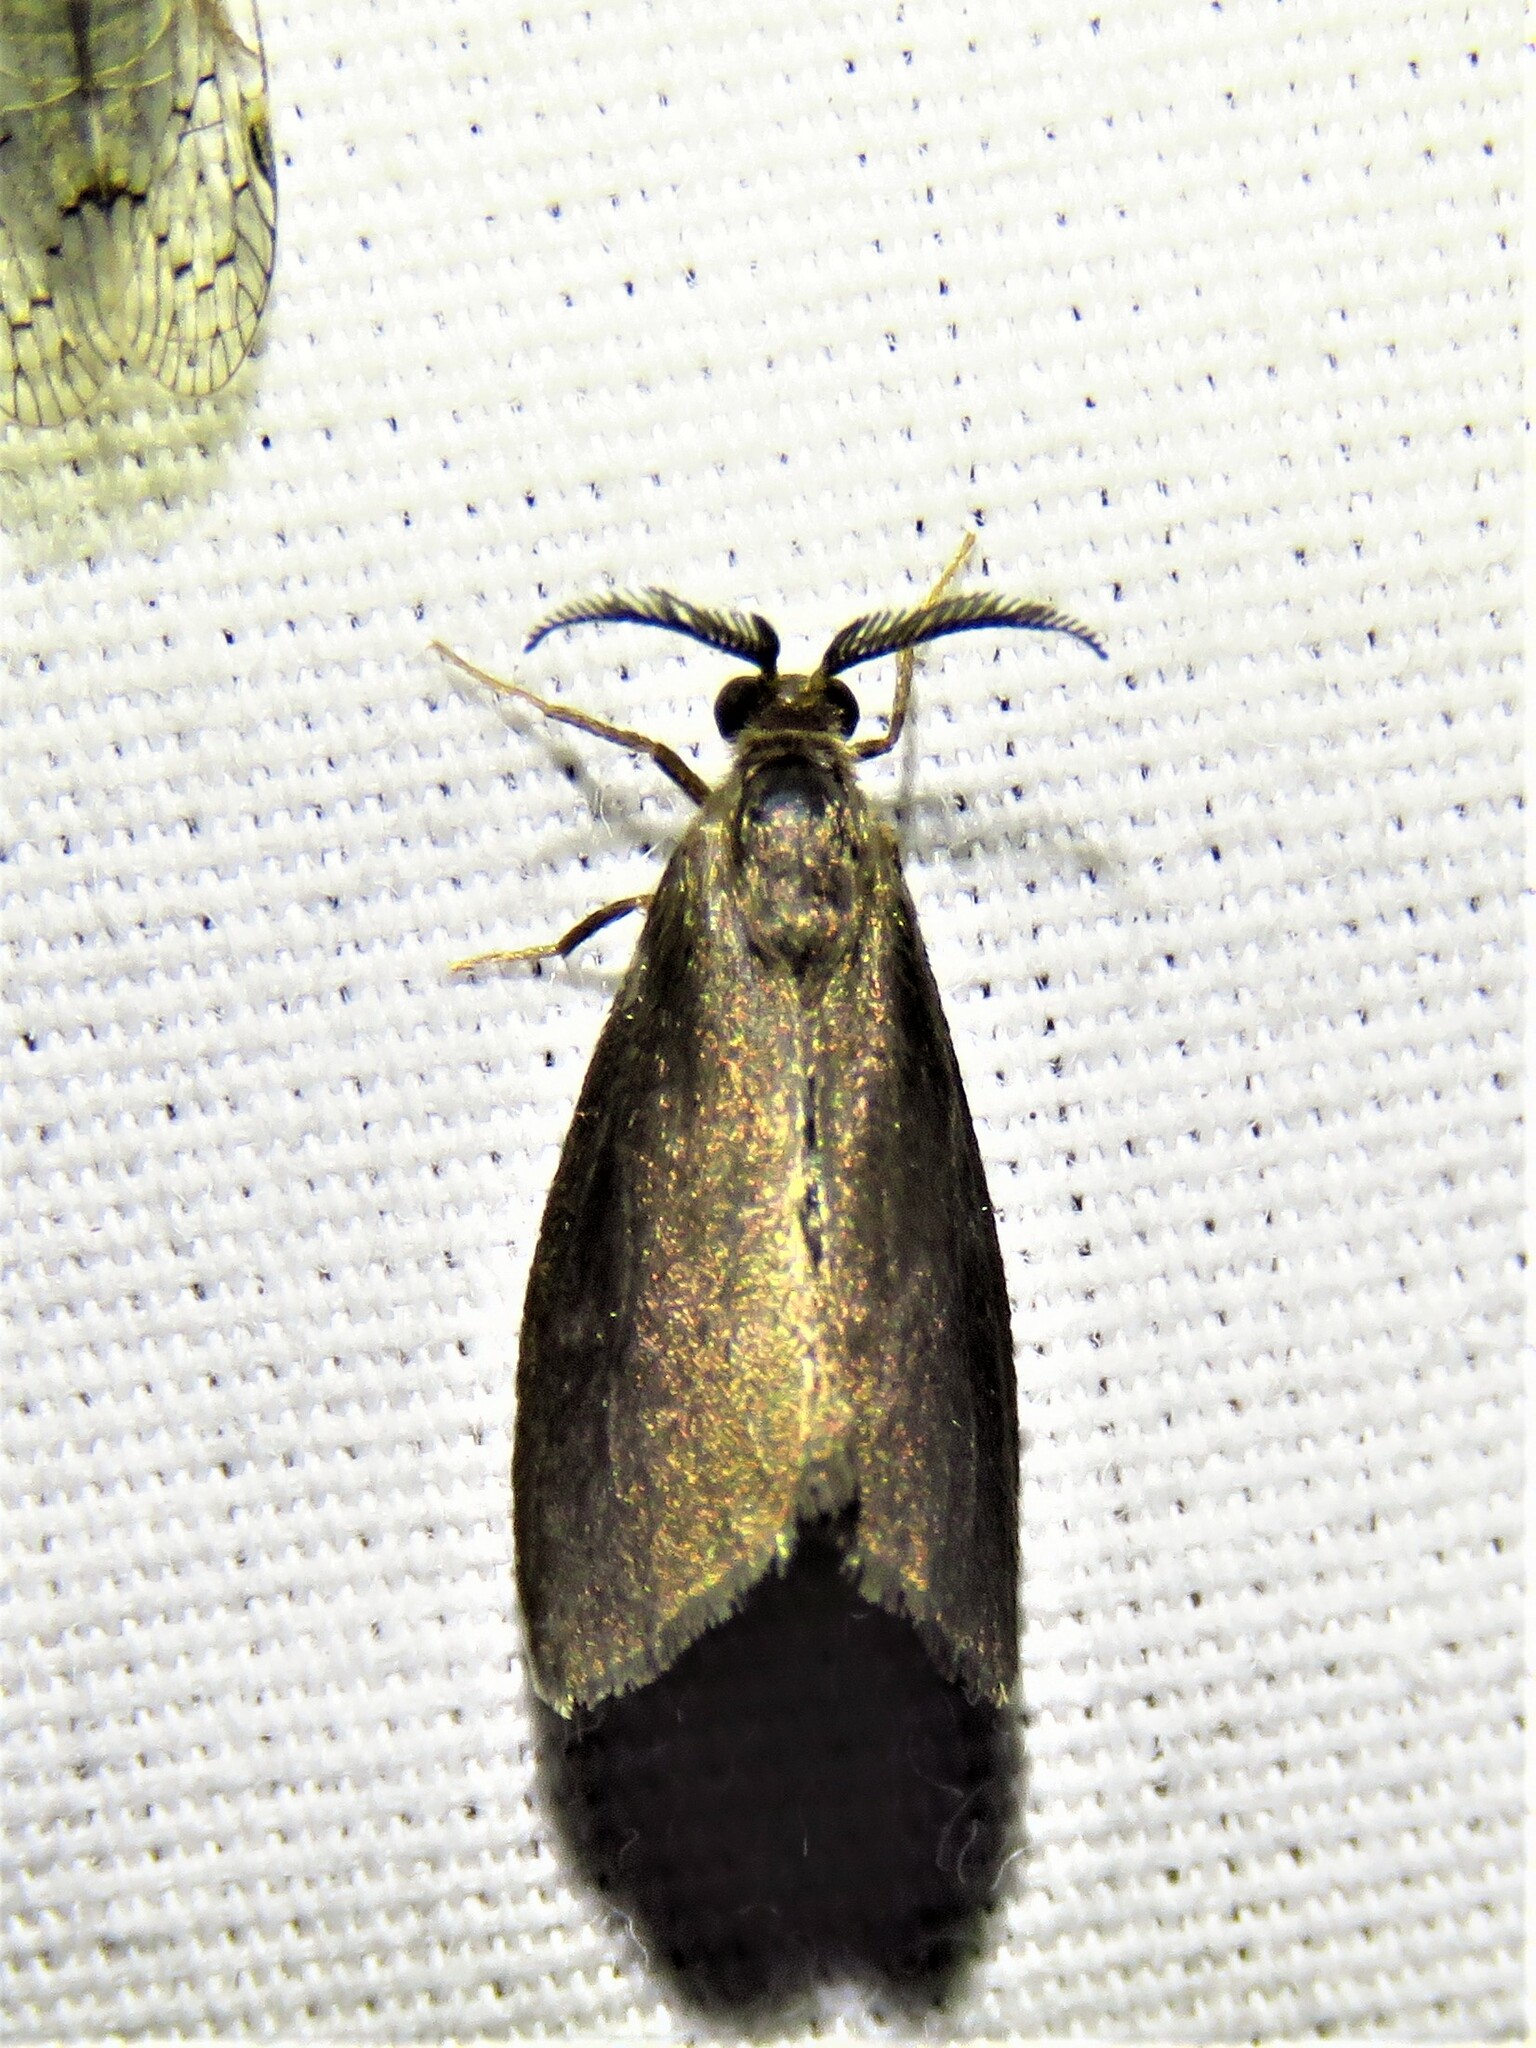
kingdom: Animalia
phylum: Arthropoda
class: Insecta
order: Lepidoptera
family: Psychidae
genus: Cryptothelea
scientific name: Cryptothelea gloverii
